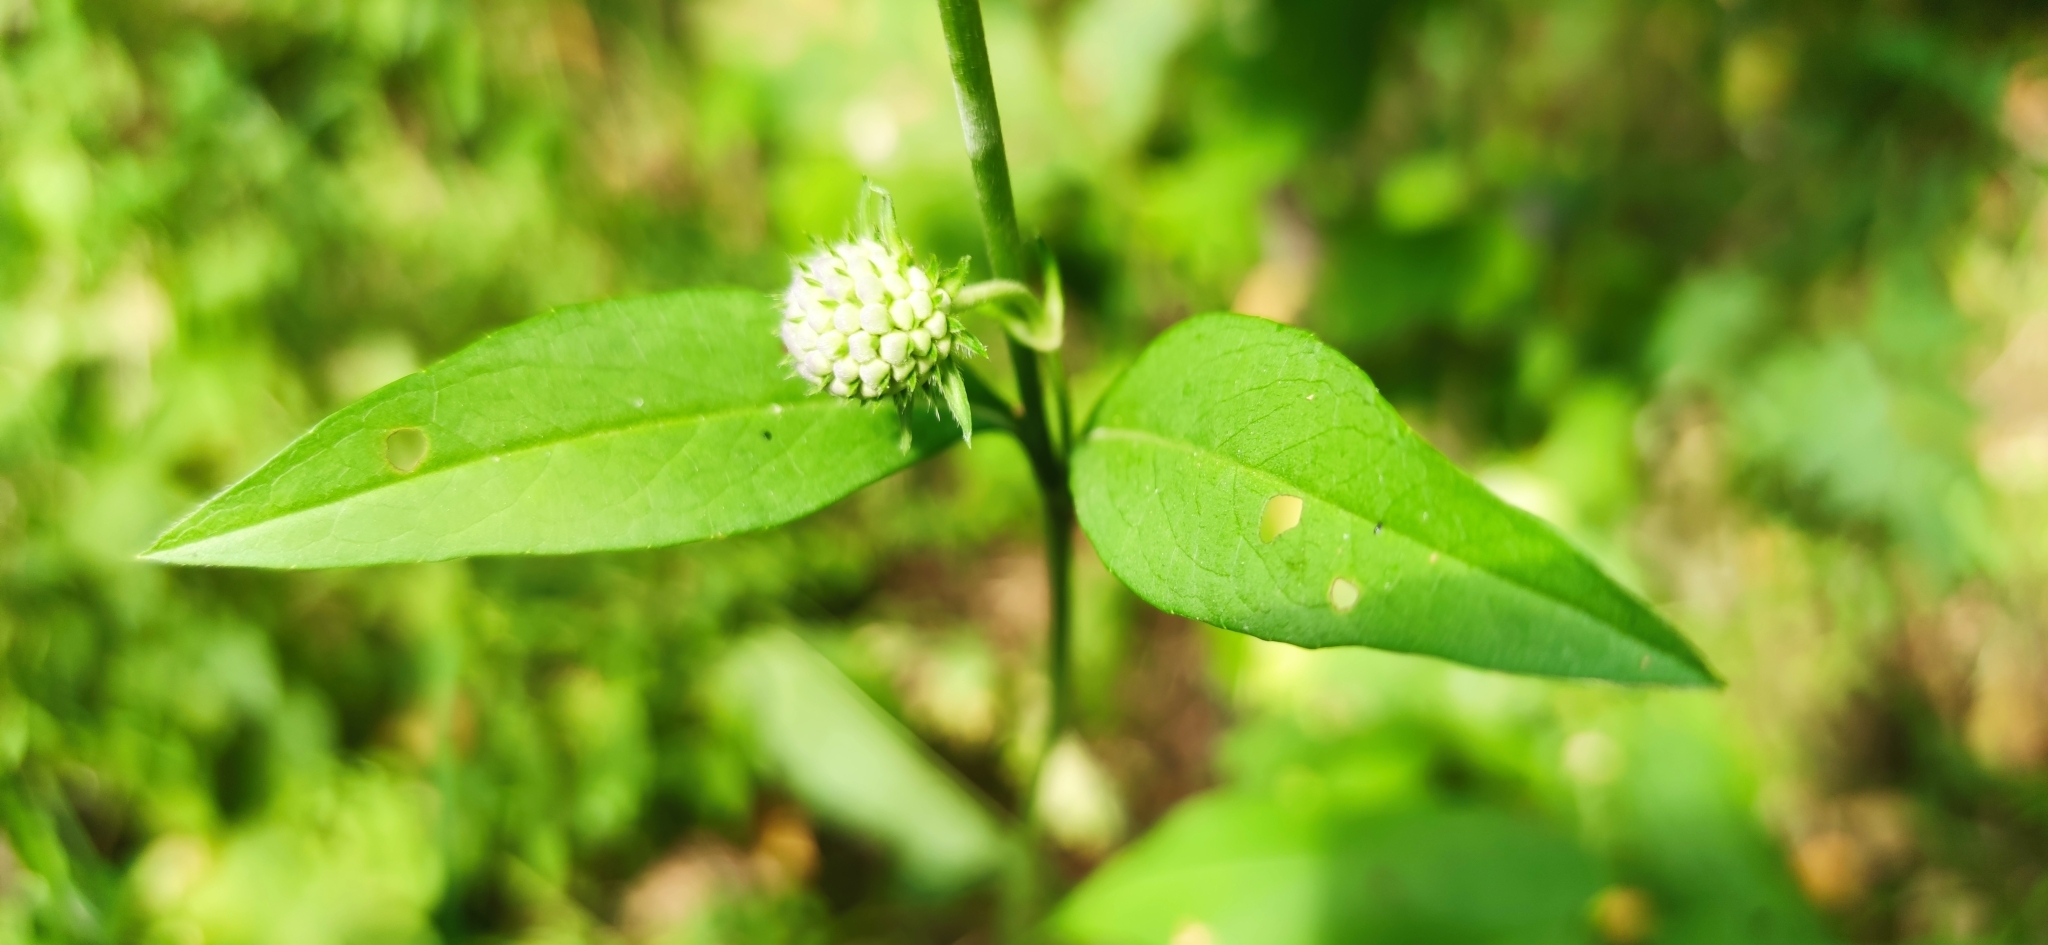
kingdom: Plantae
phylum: Tracheophyta
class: Magnoliopsida
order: Dipsacales
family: Caprifoliaceae
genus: Succisa
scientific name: Succisa pratensis
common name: Devil's-bit
